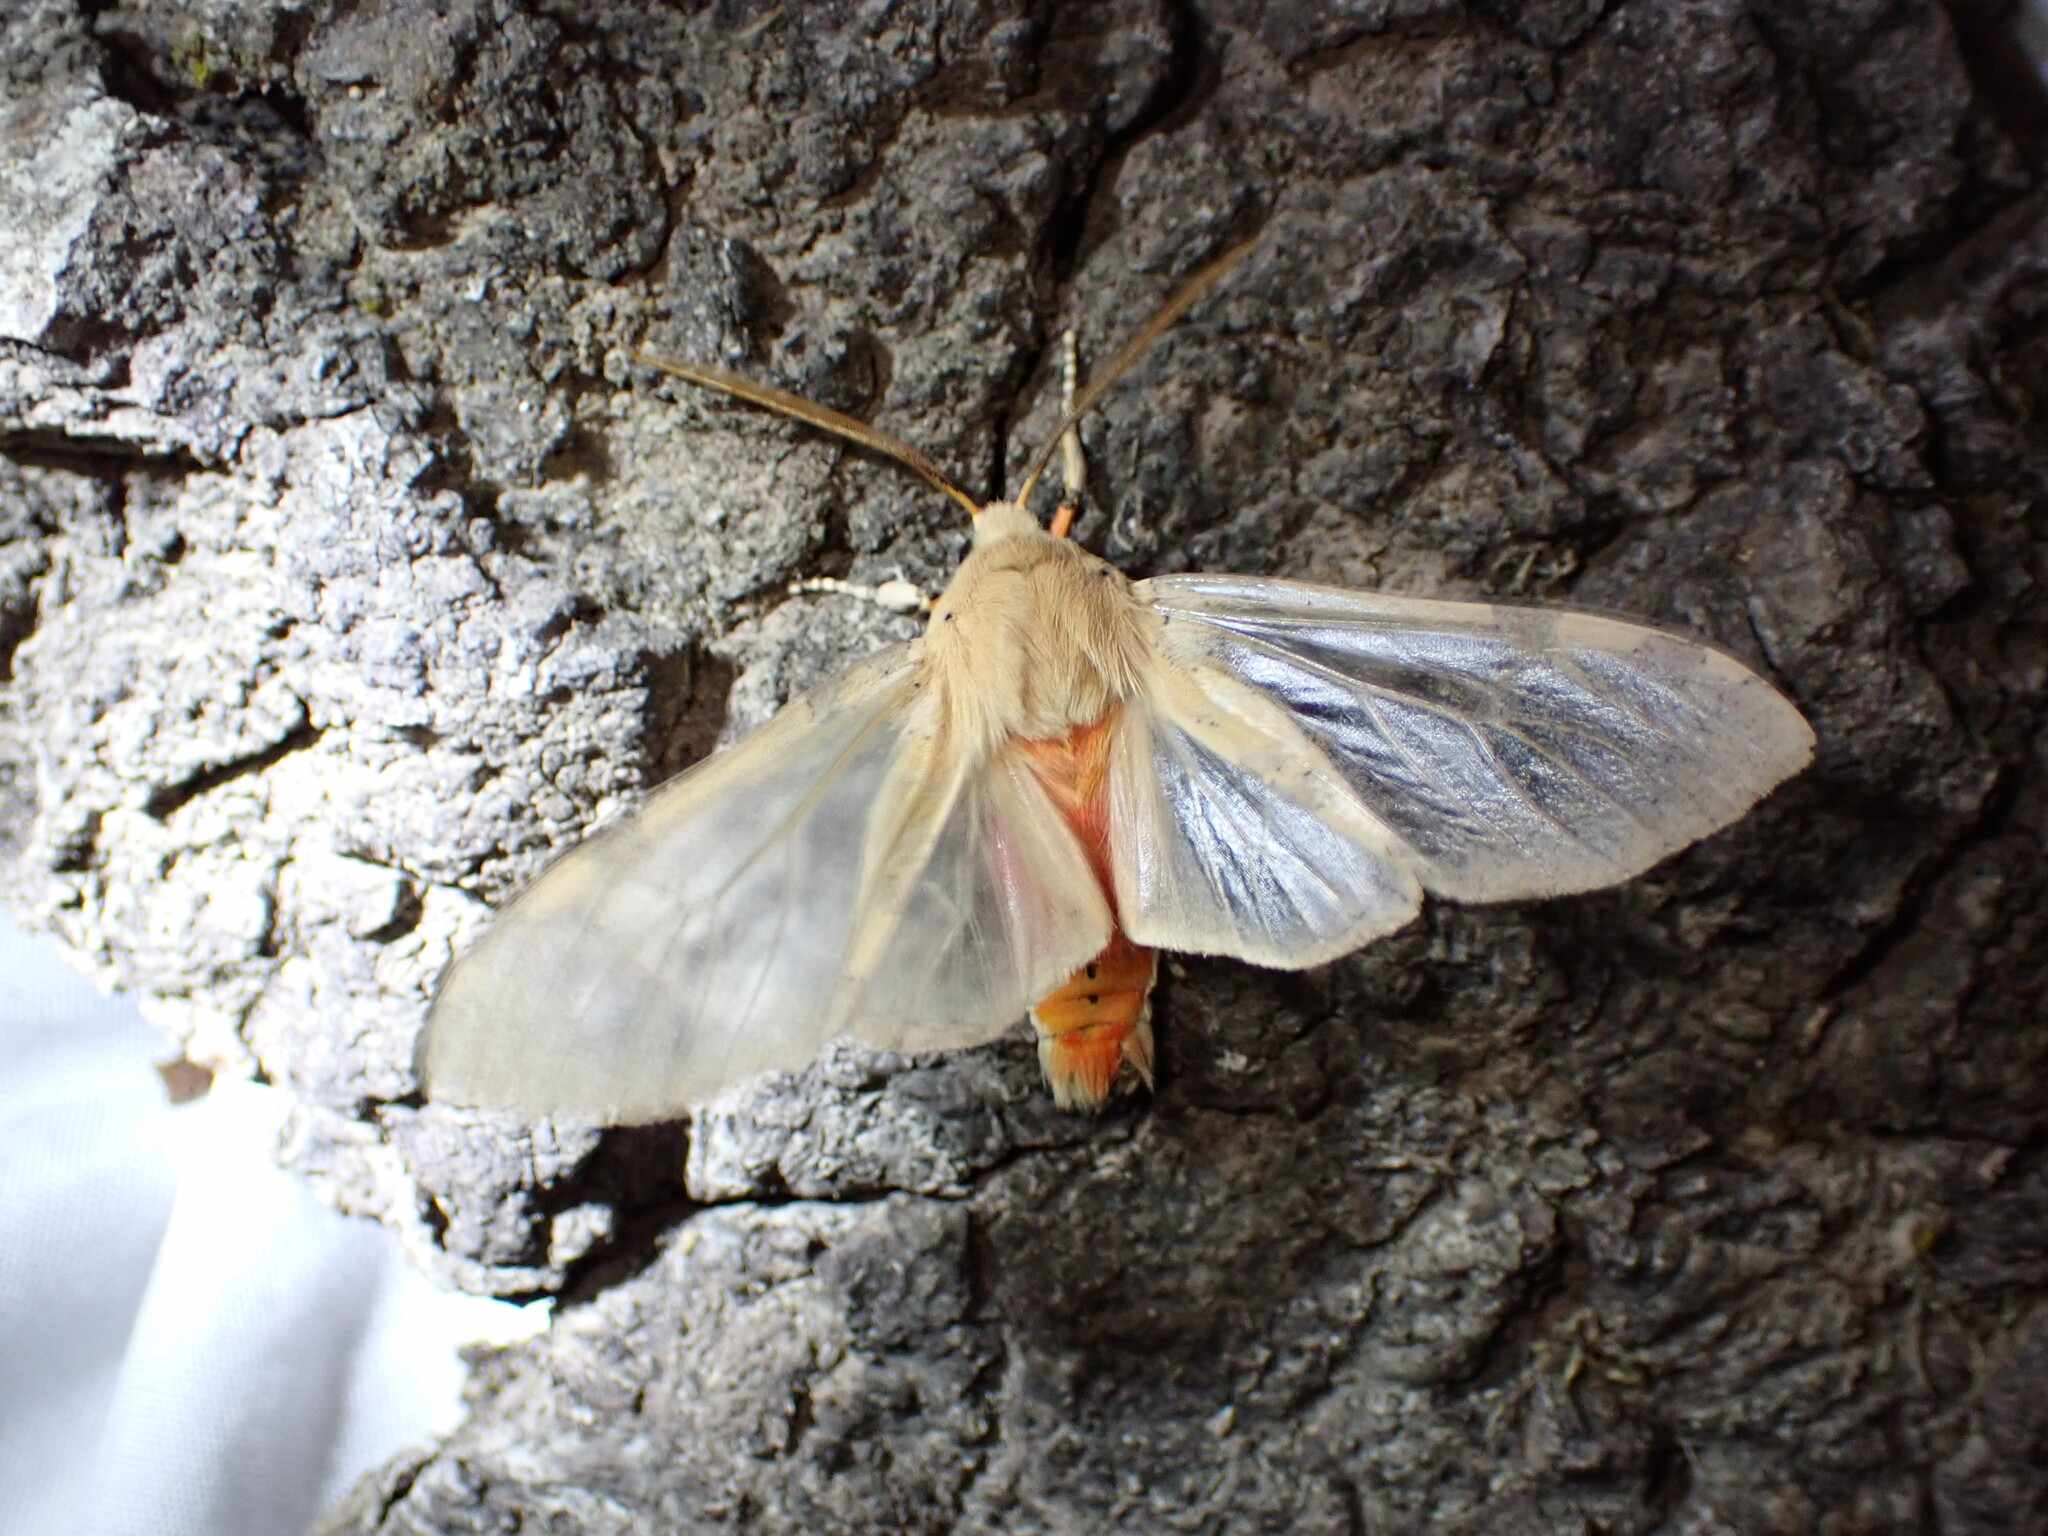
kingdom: Animalia
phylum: Arthropoda
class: Insecta
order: Lepidoptera
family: Erebidae
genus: Hemihyalea
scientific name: Hemihyalea edwardsii
